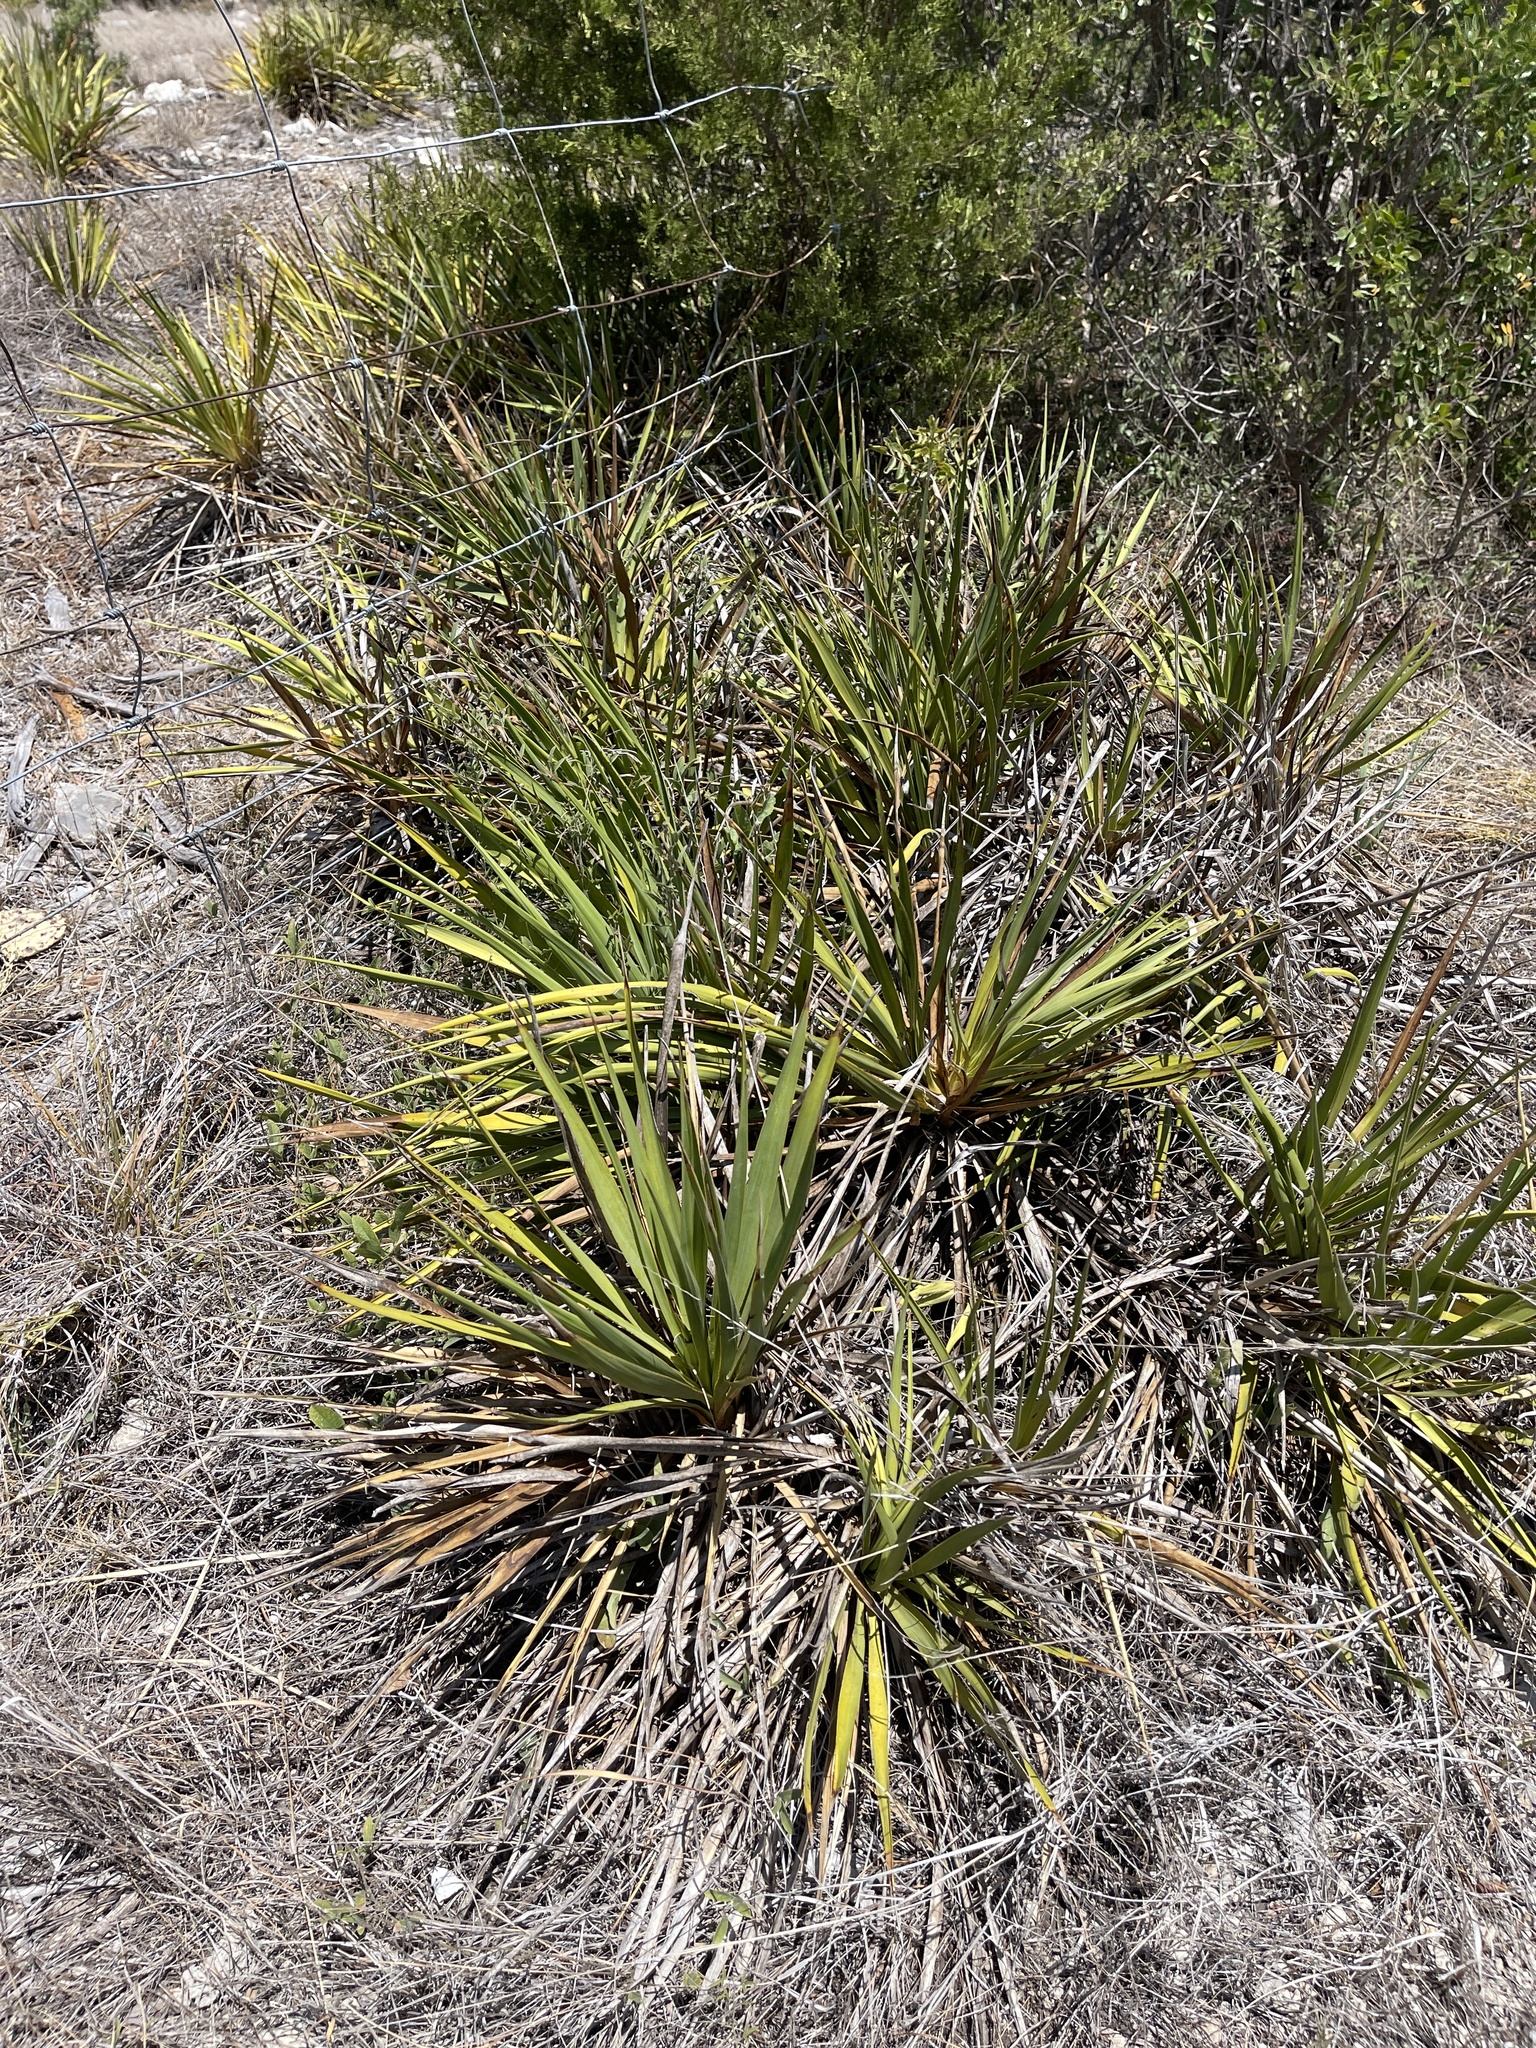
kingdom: Plantae
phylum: Tracheophyta
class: Liliopsida
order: Asparagales
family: Asparagaceae
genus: Yucca
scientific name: Yucca reverchonii
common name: San angelo yucca
